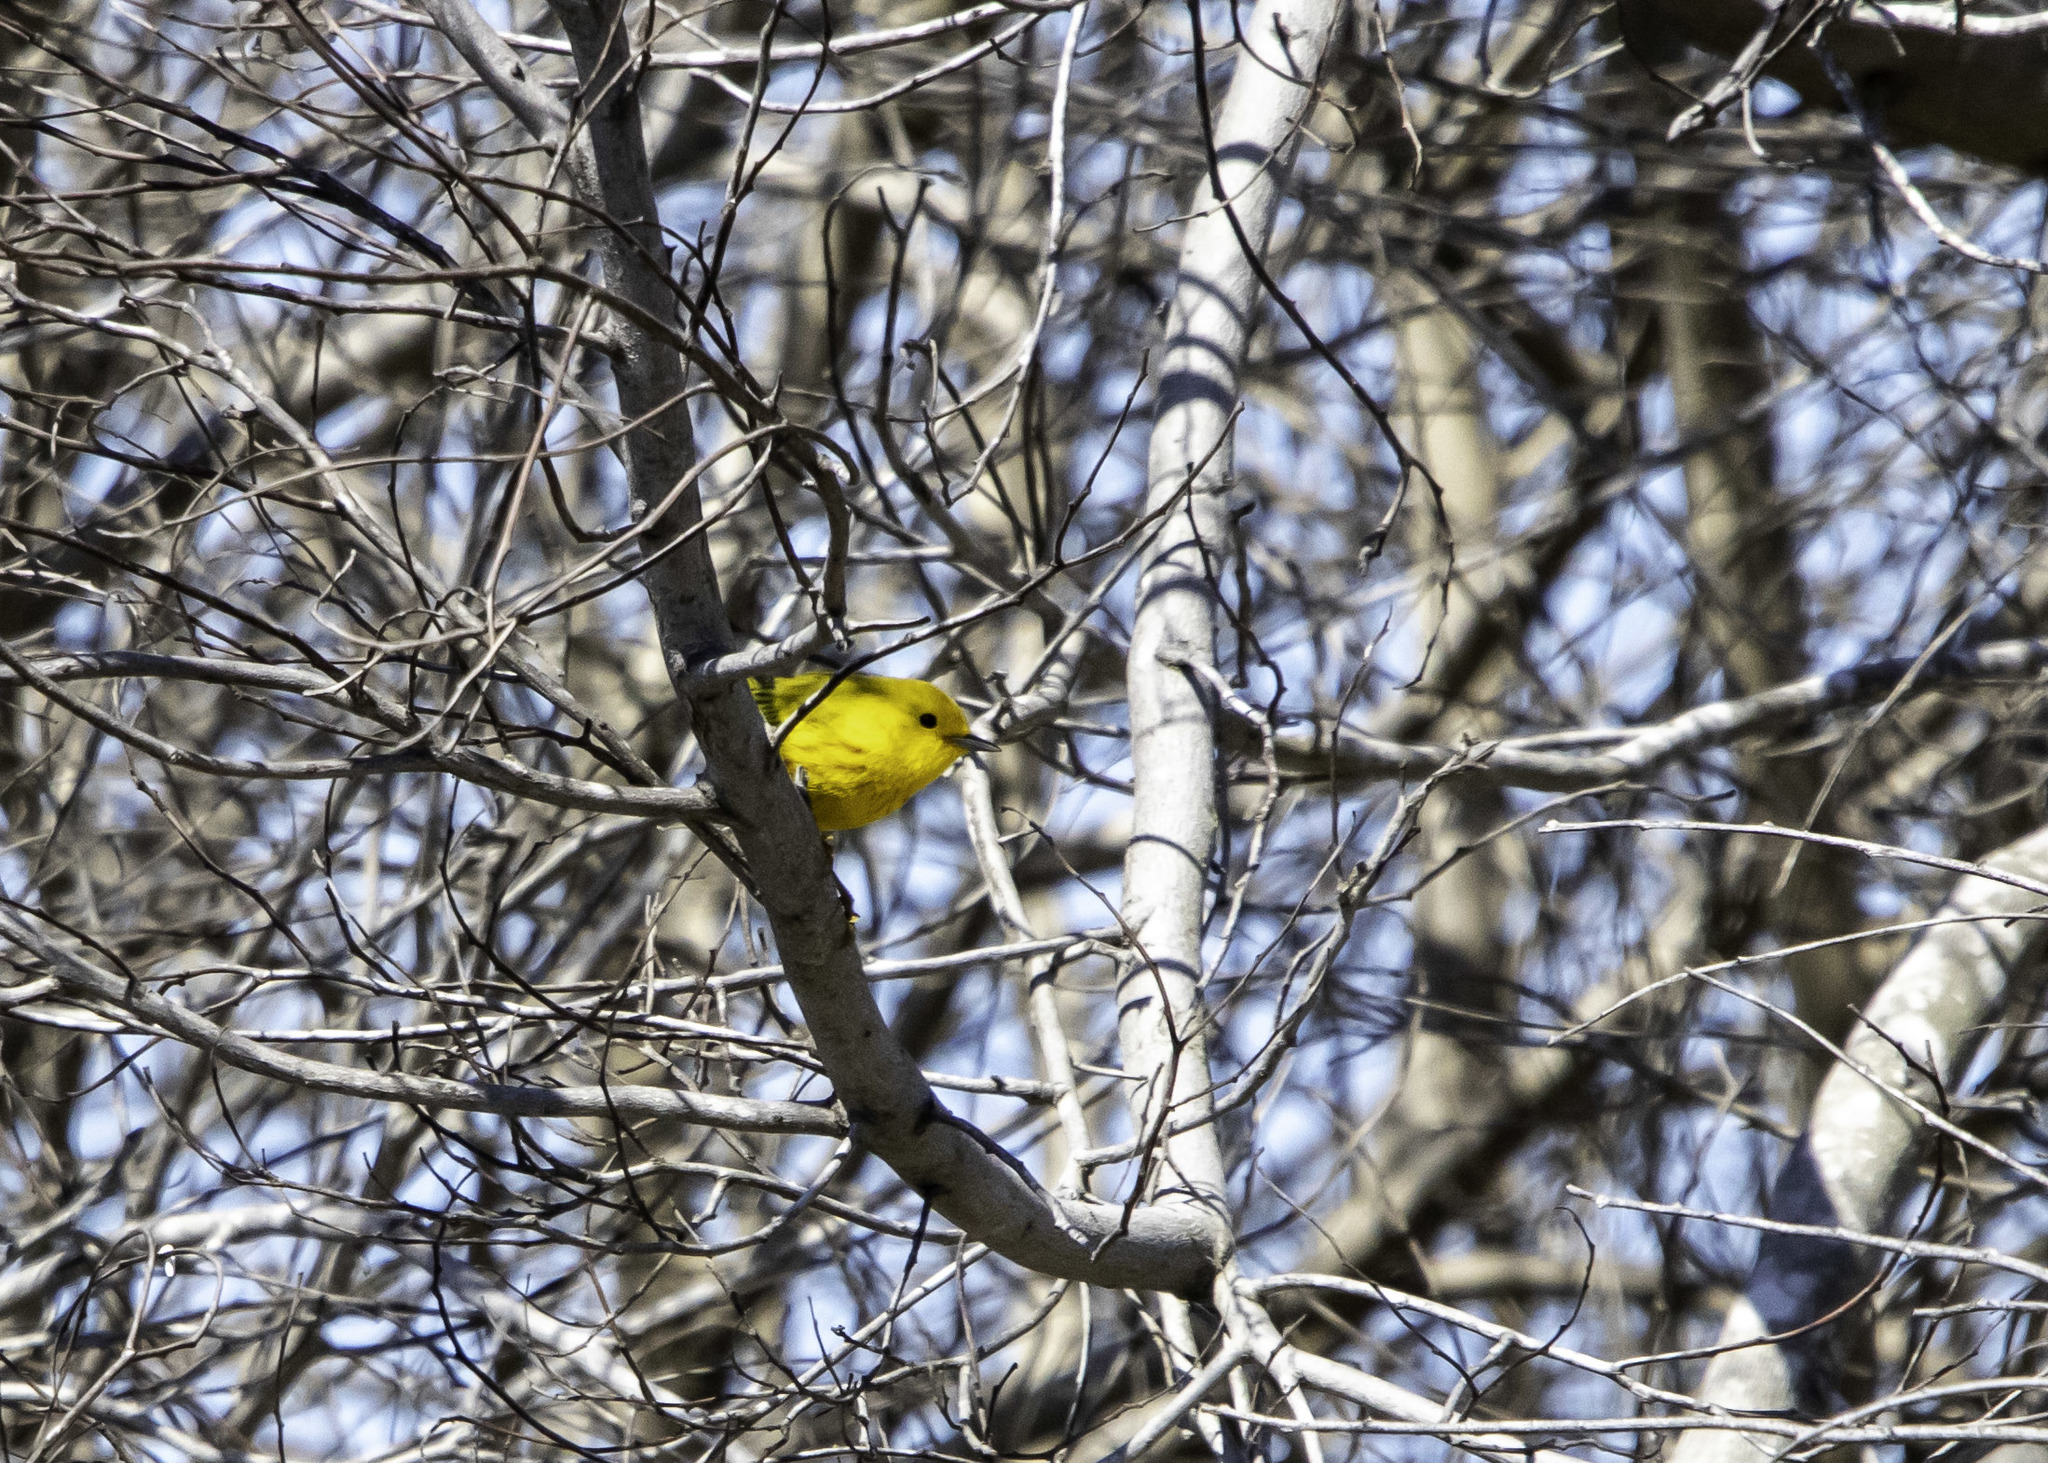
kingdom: Animalia
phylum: Chordata
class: Aves
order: Passeriformes
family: Parulidae
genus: Setophaga
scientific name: Setophaga petechia
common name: Yellow warbler
